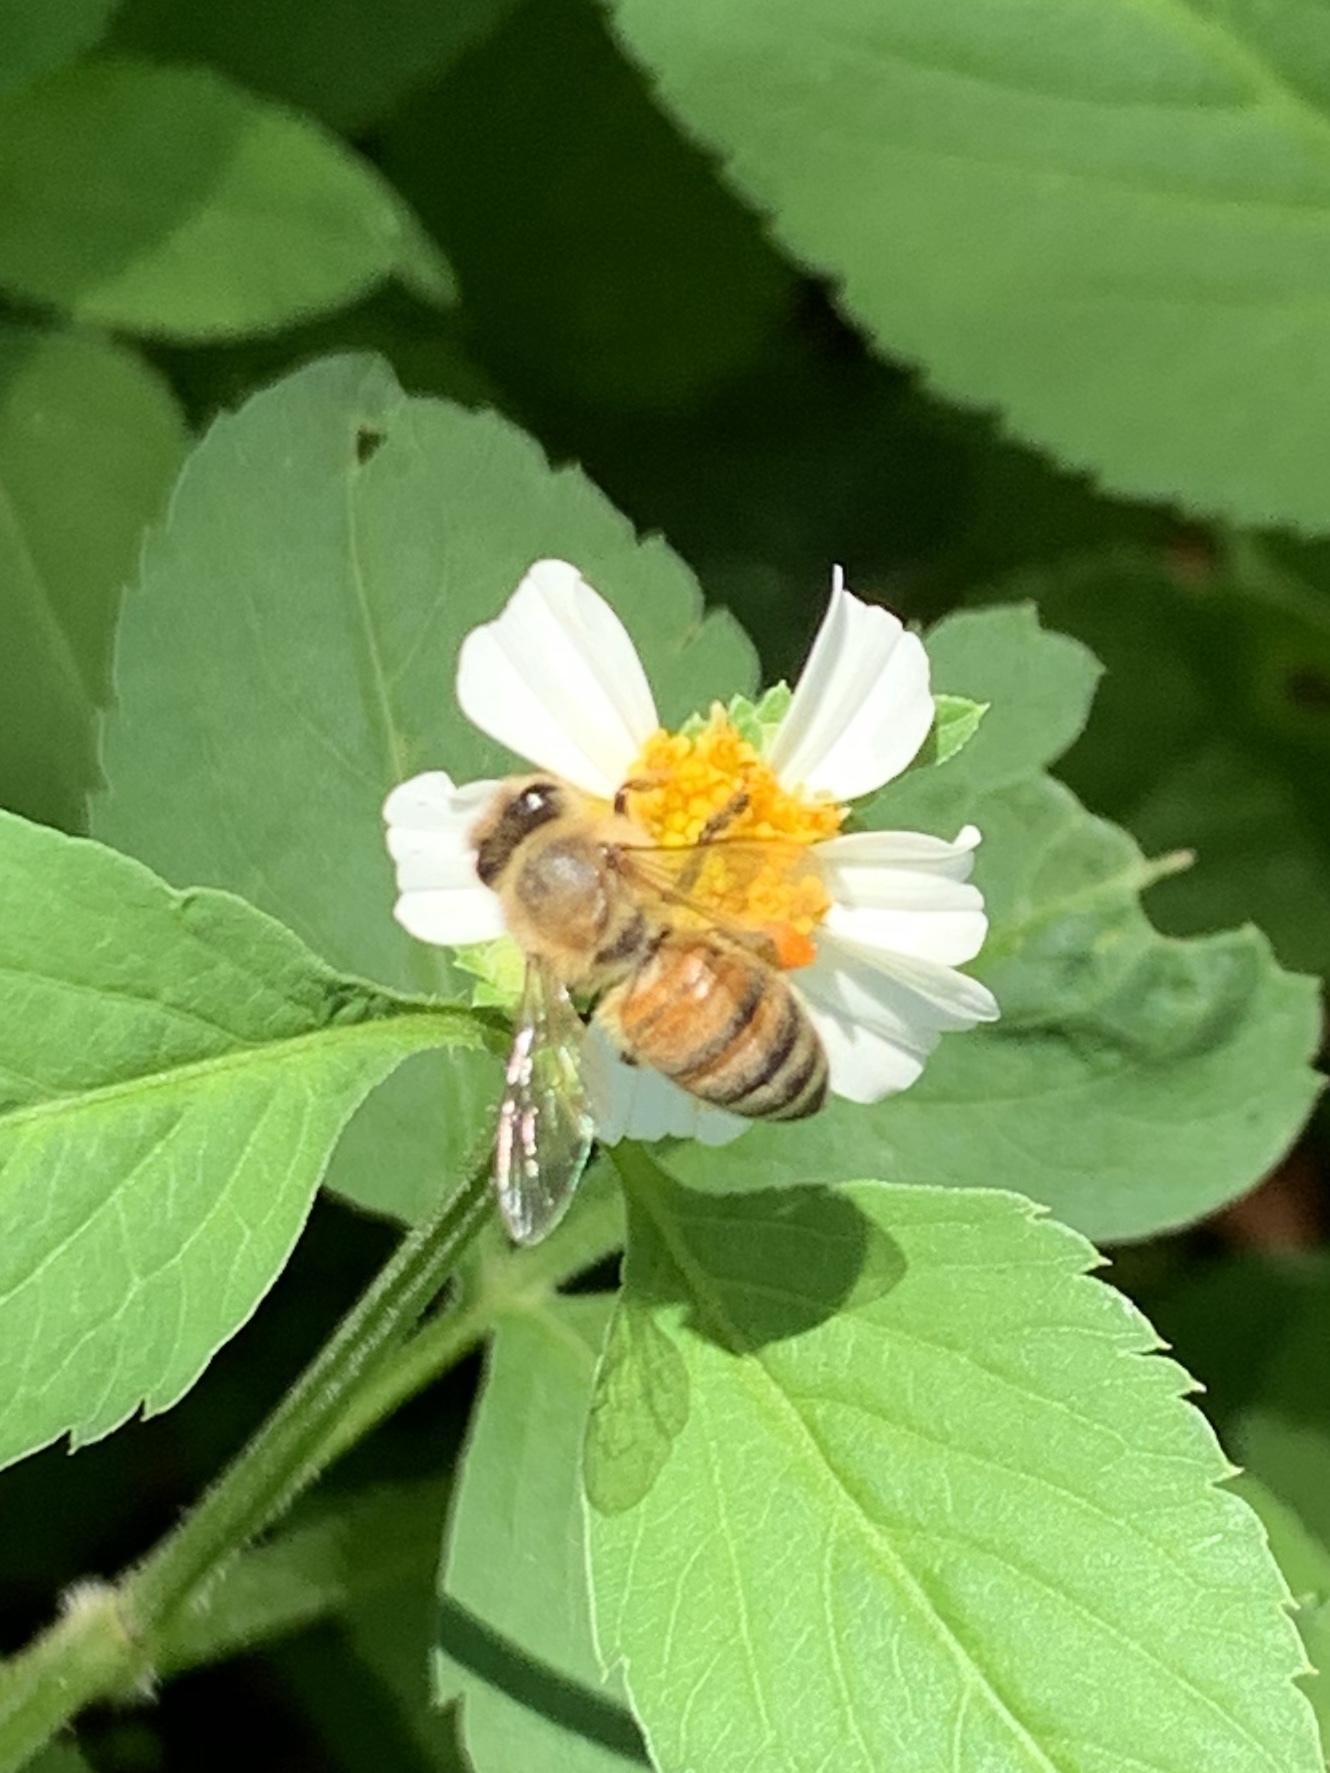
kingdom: Animalia
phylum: Arthropoda
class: Insecta
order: Hymenoptera
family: Apidae
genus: Apis
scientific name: Apis mellifera
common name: Honey bee
